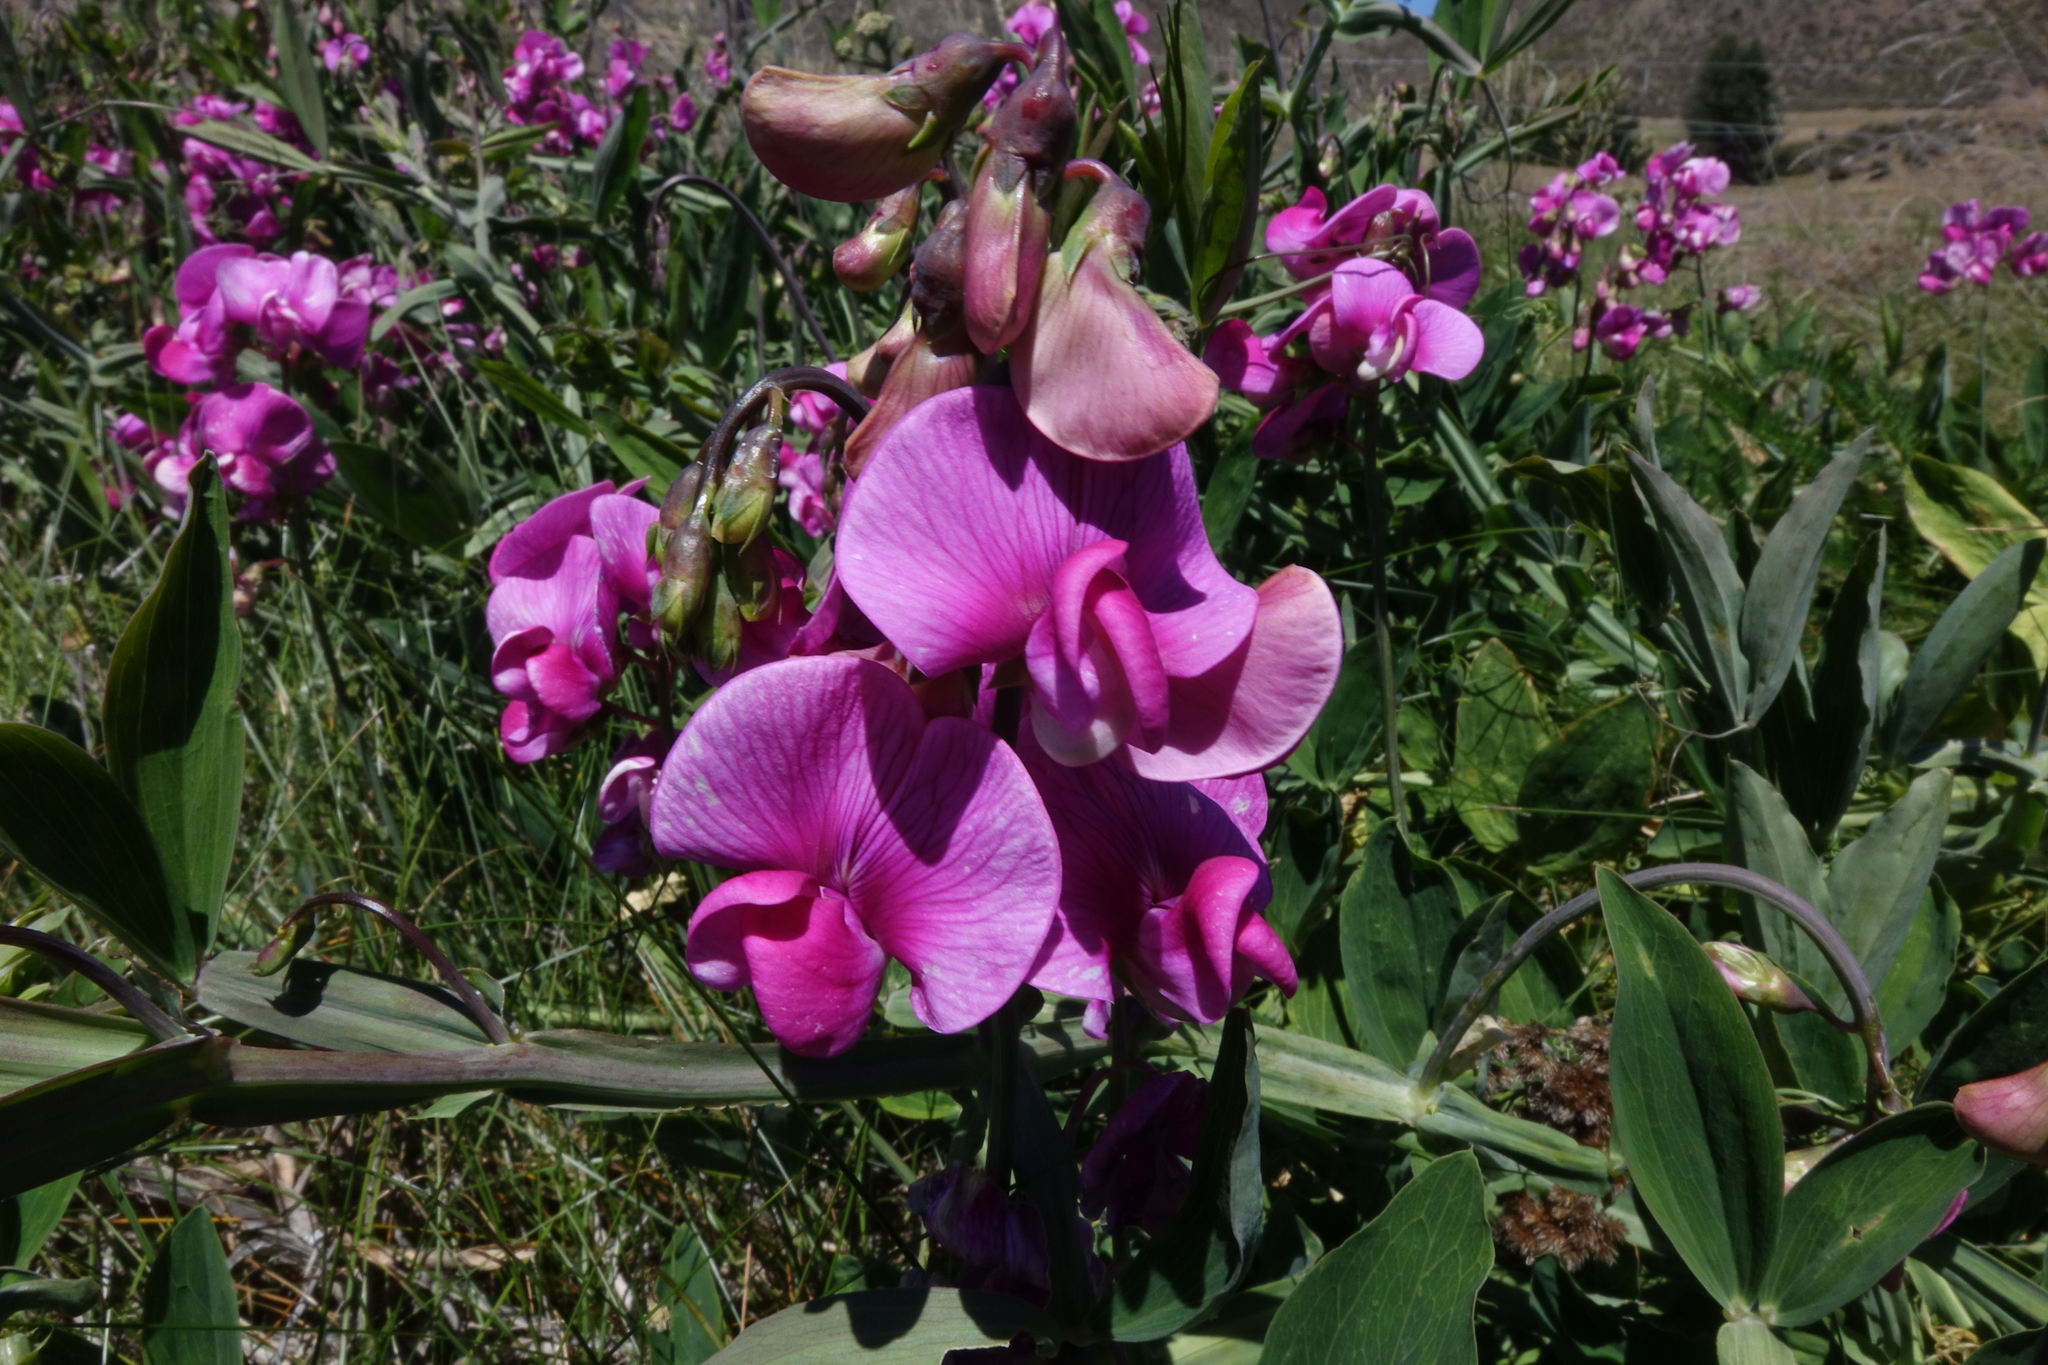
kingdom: Plantae
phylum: Tracheophyta
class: Magnoliopsida
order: Fabales
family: Fabaceae
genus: Lathyrus
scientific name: Lathyrus latifolius
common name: Perennial pea
